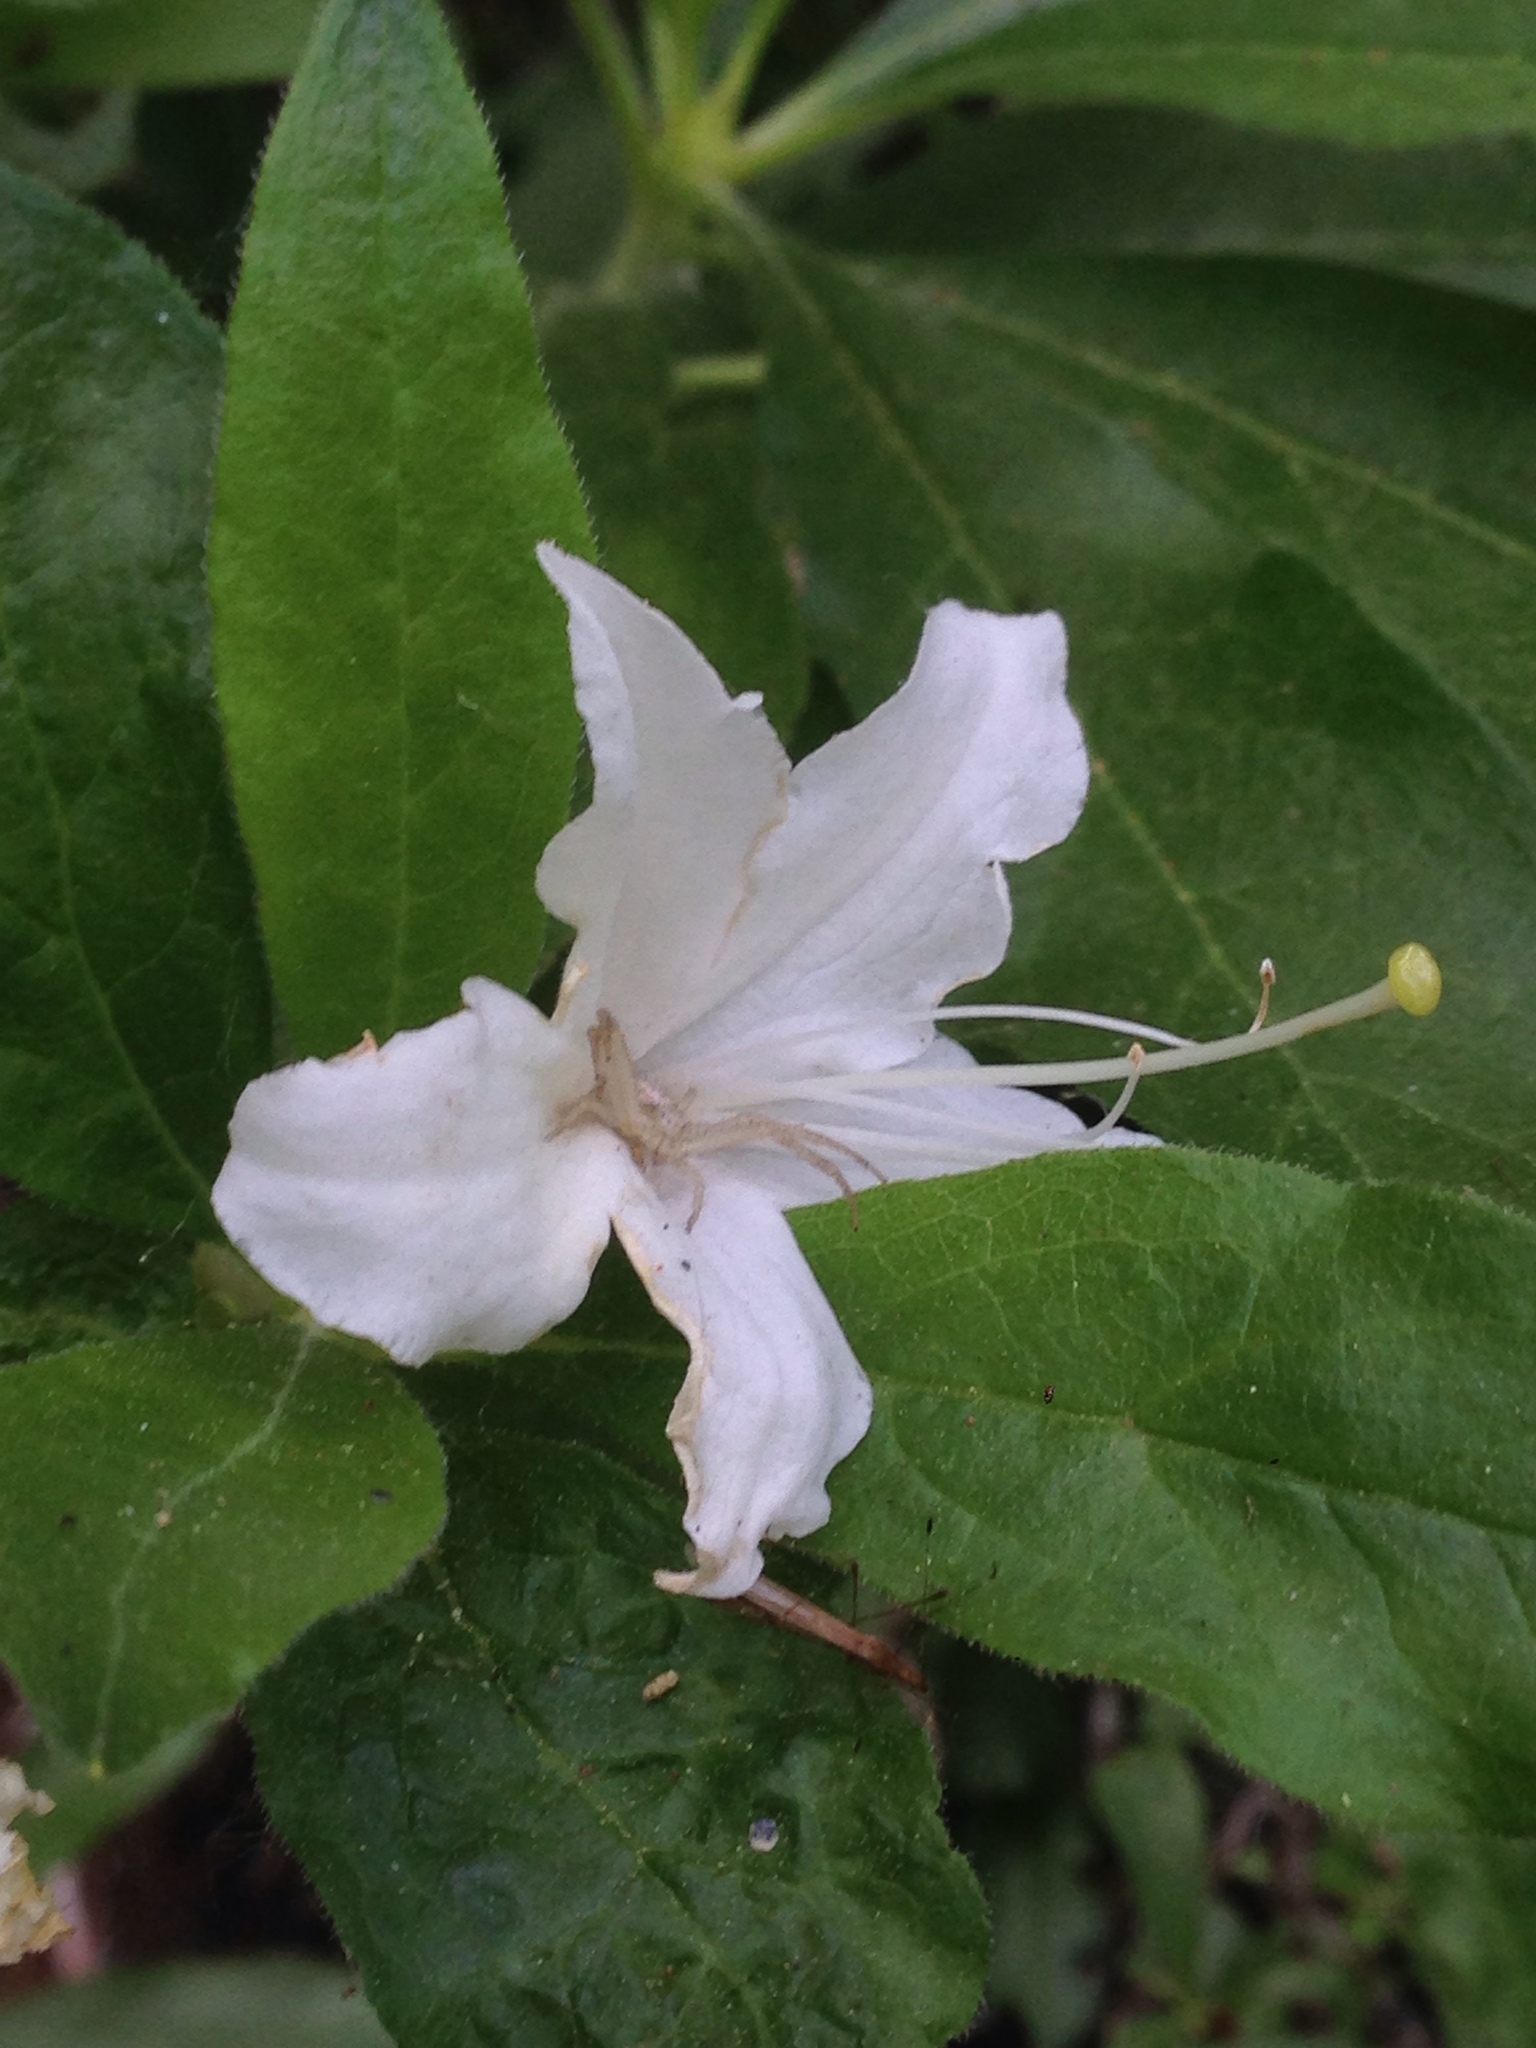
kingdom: Plantae
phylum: Tracheophyta
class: Magnoliopsida
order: Ericales
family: Ericaceae
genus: Rhododendron
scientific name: Rhododendron occidentale
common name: Western azalea
